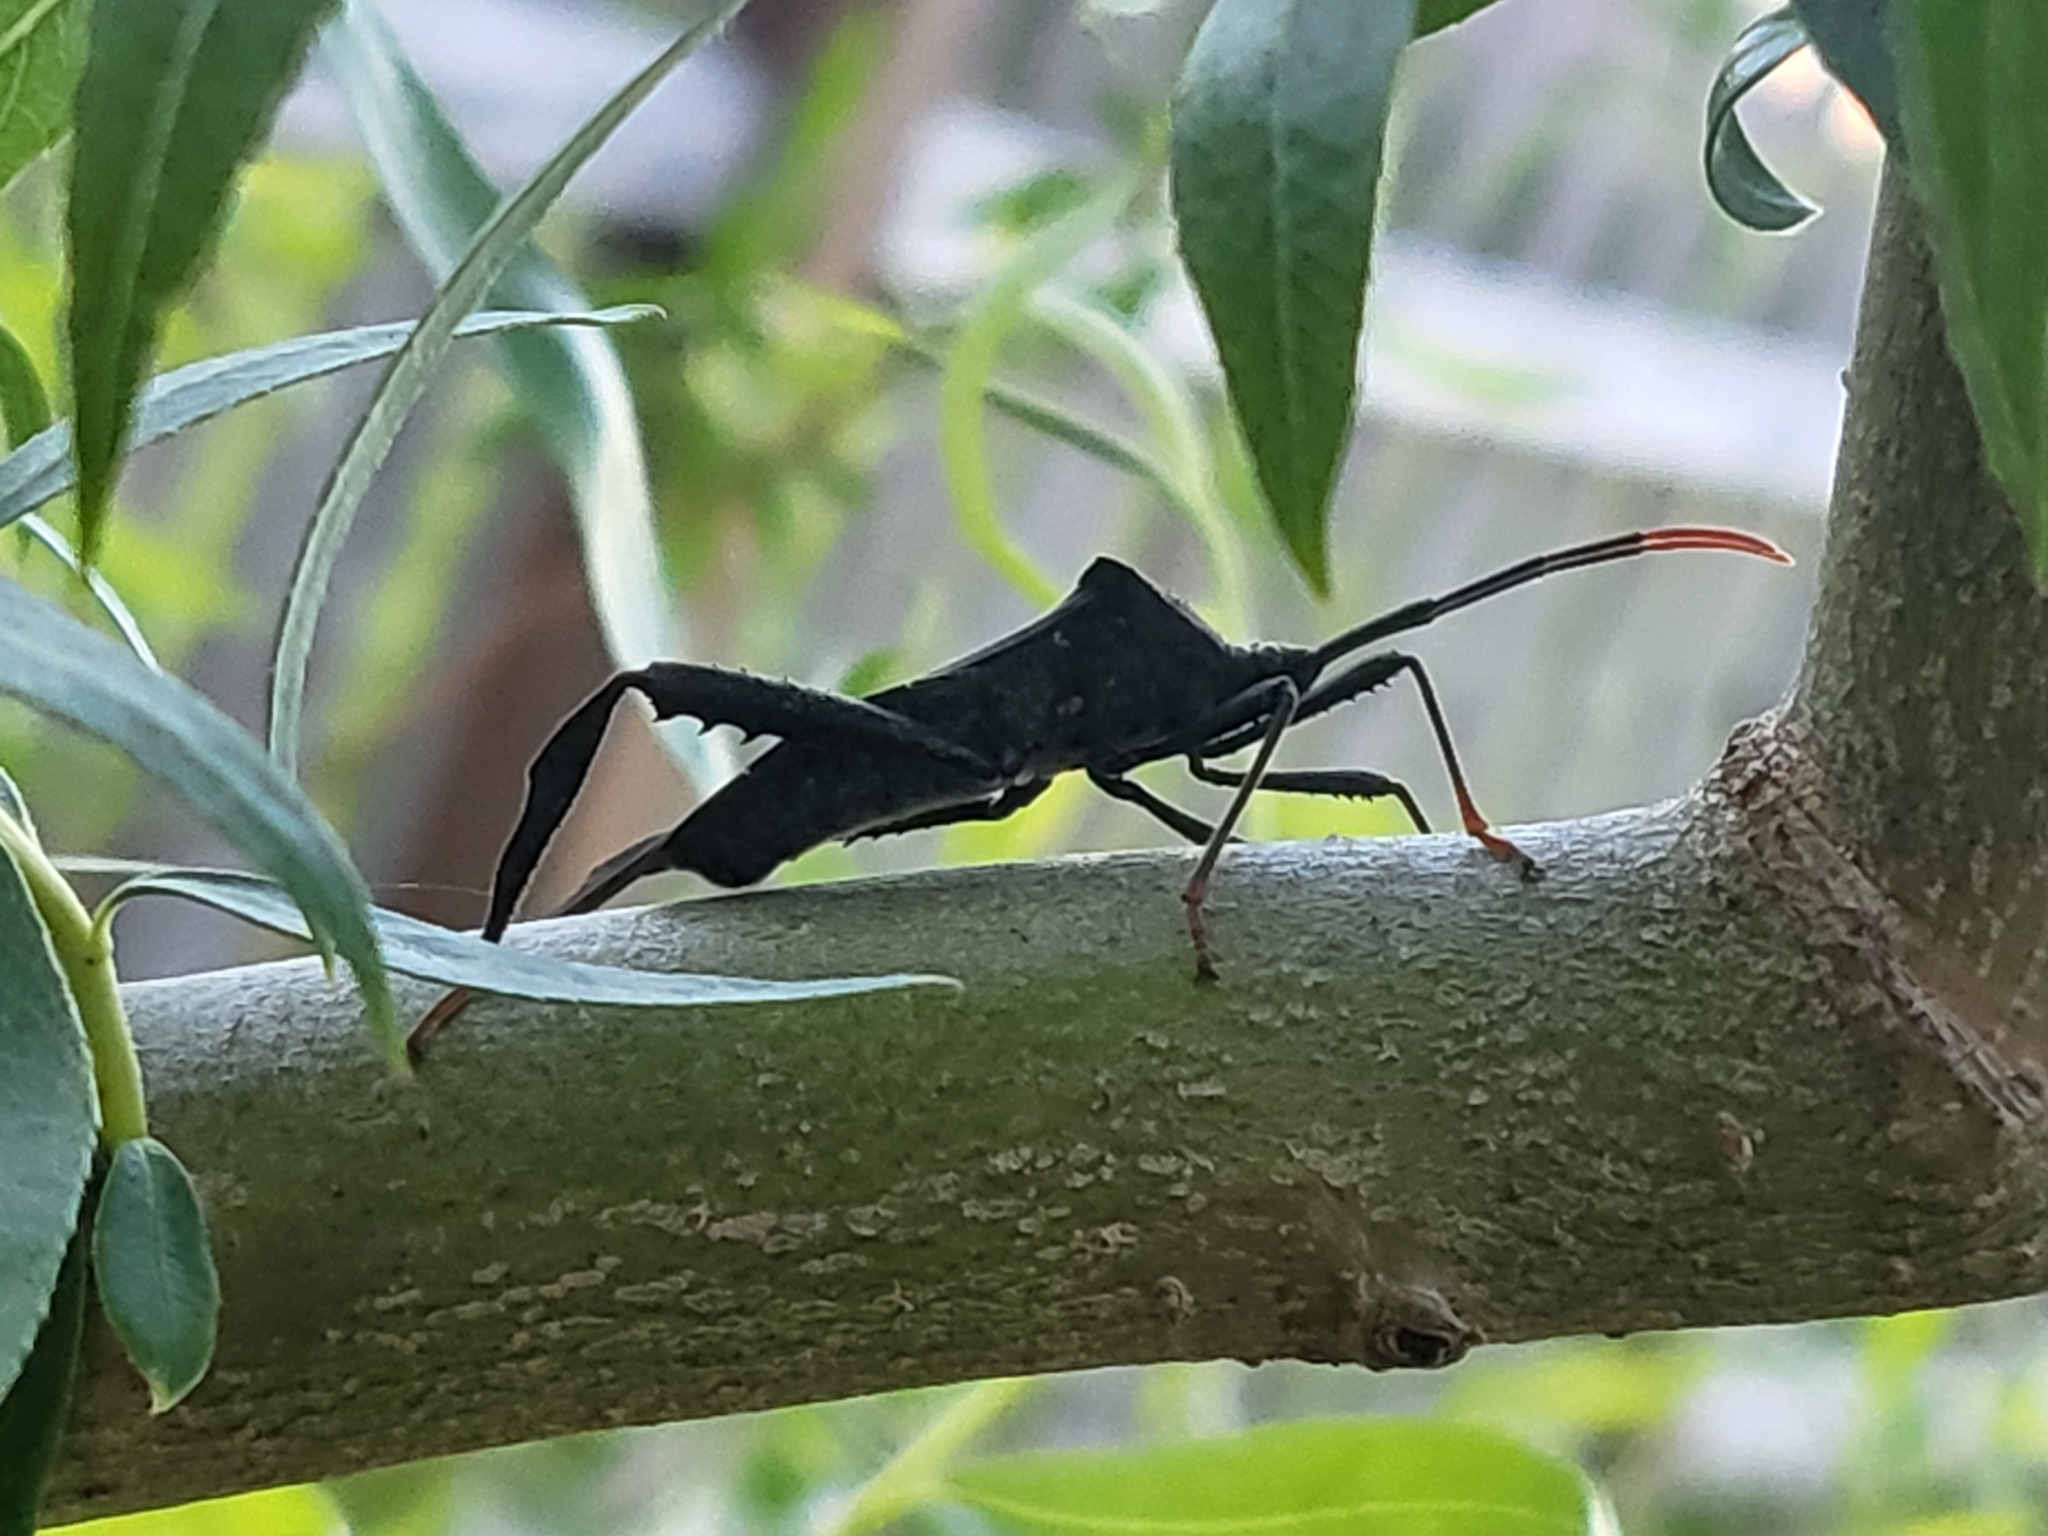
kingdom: Animalia
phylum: Arthropoda
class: Insecta
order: Hemiptera
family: Coreidae
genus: Acanthocephala
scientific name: Acanthocephala terminalis
